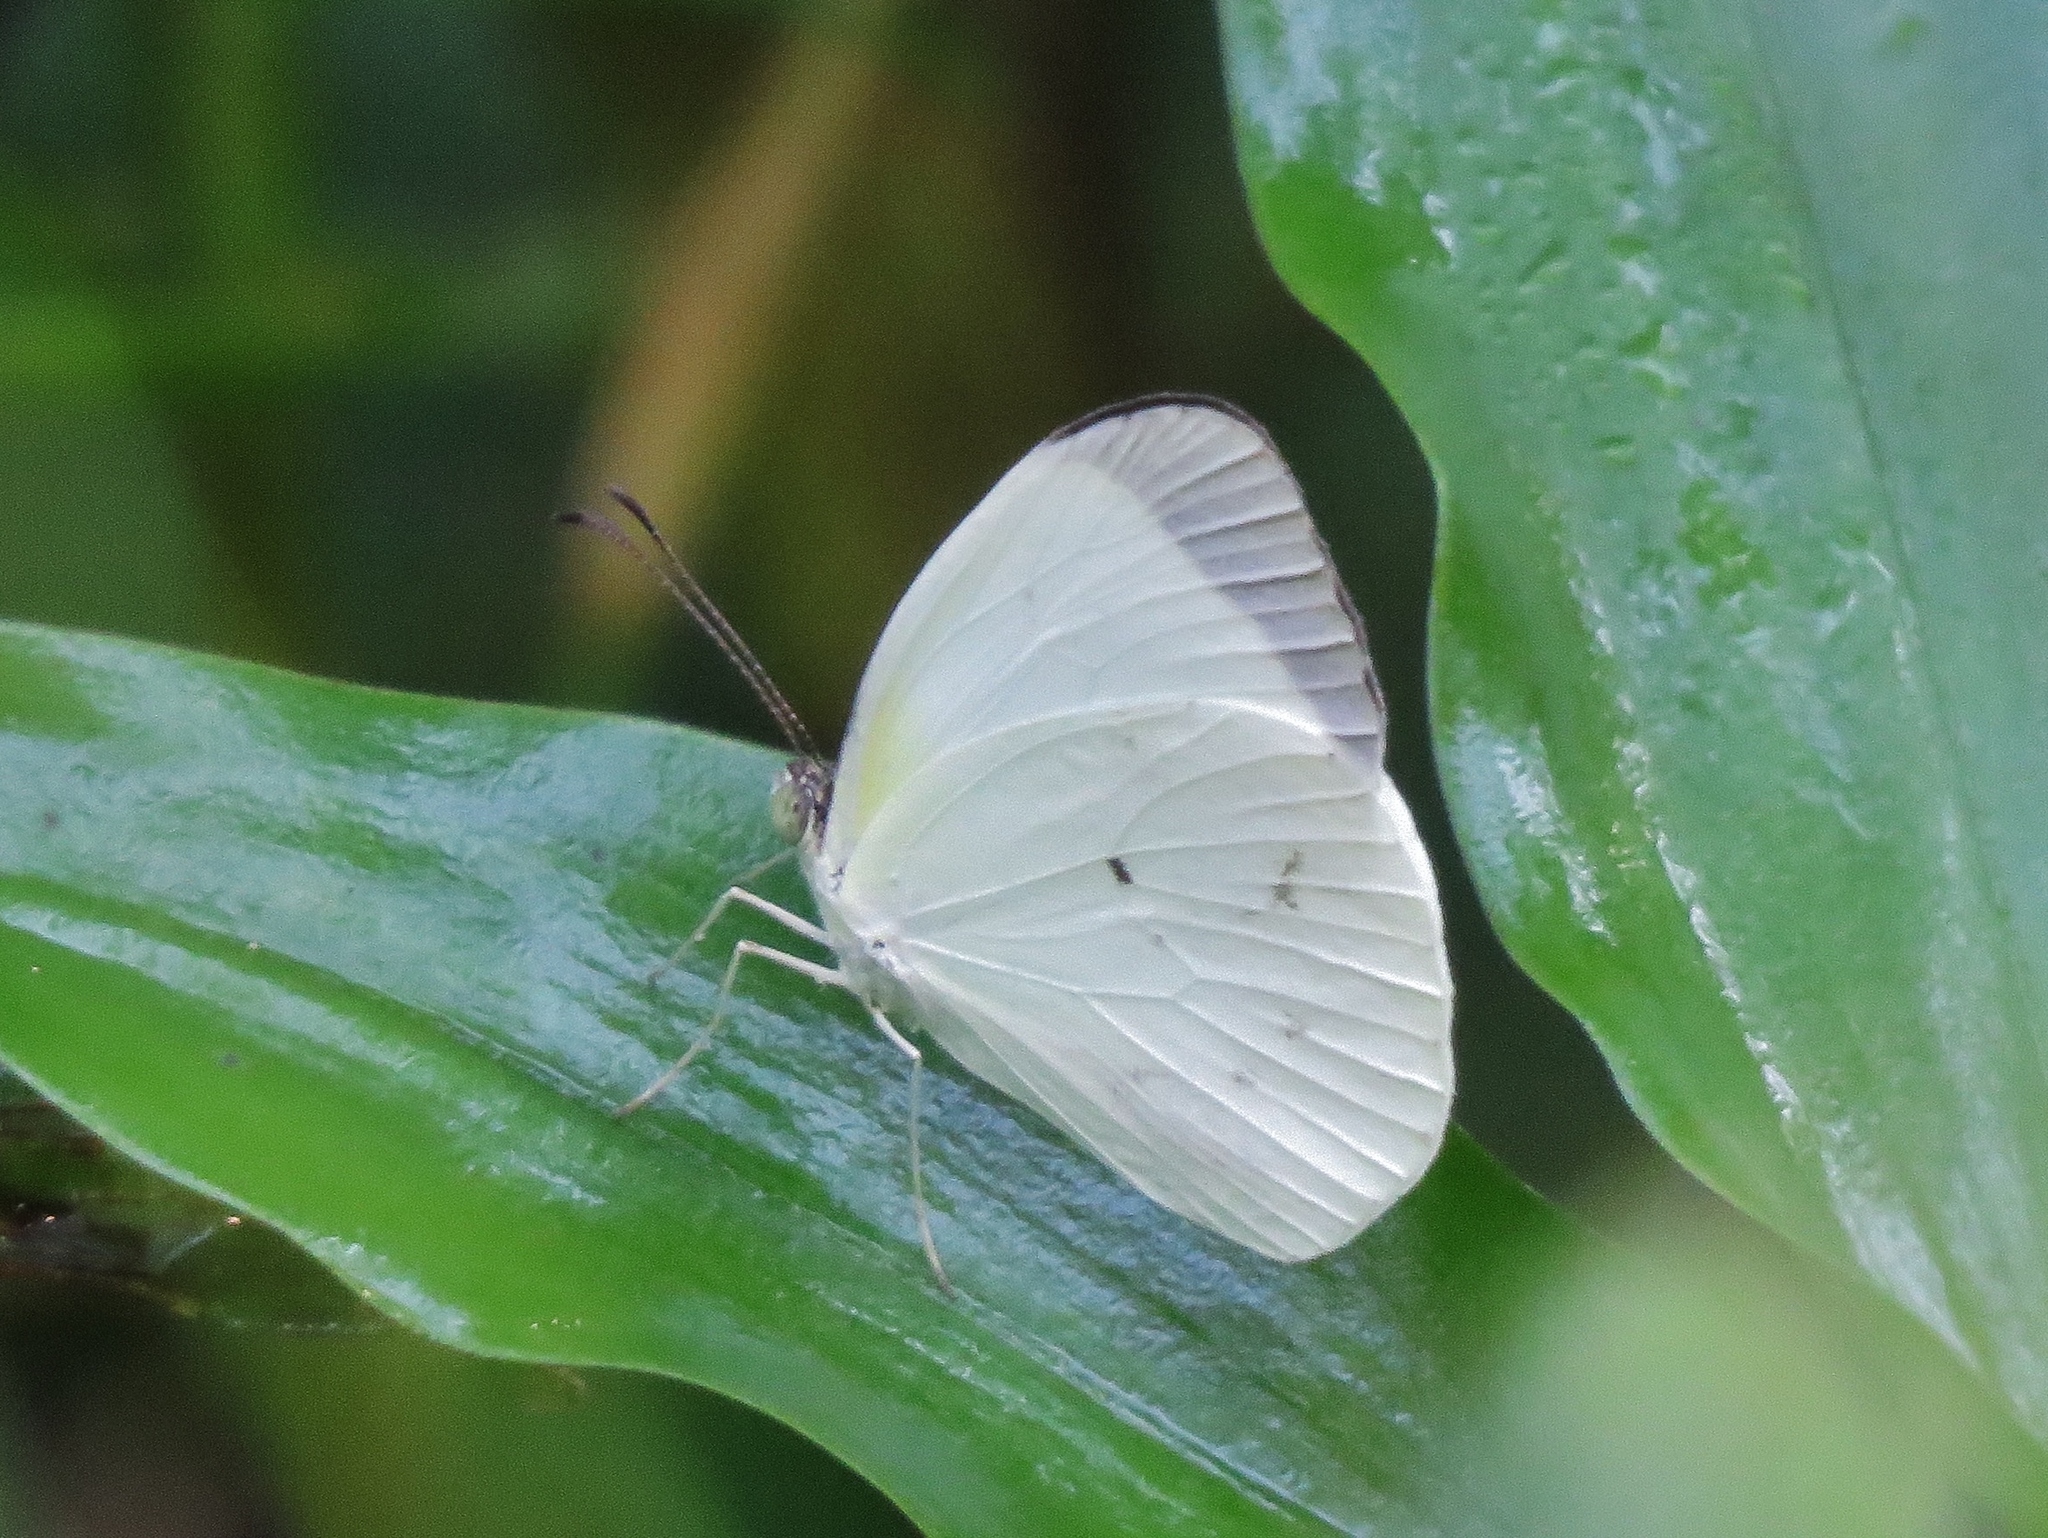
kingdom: Animalia
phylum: Arthropoda
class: Insecta
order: Lepidoptera
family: Pieridae
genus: Abaeis
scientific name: Abaeis albula
